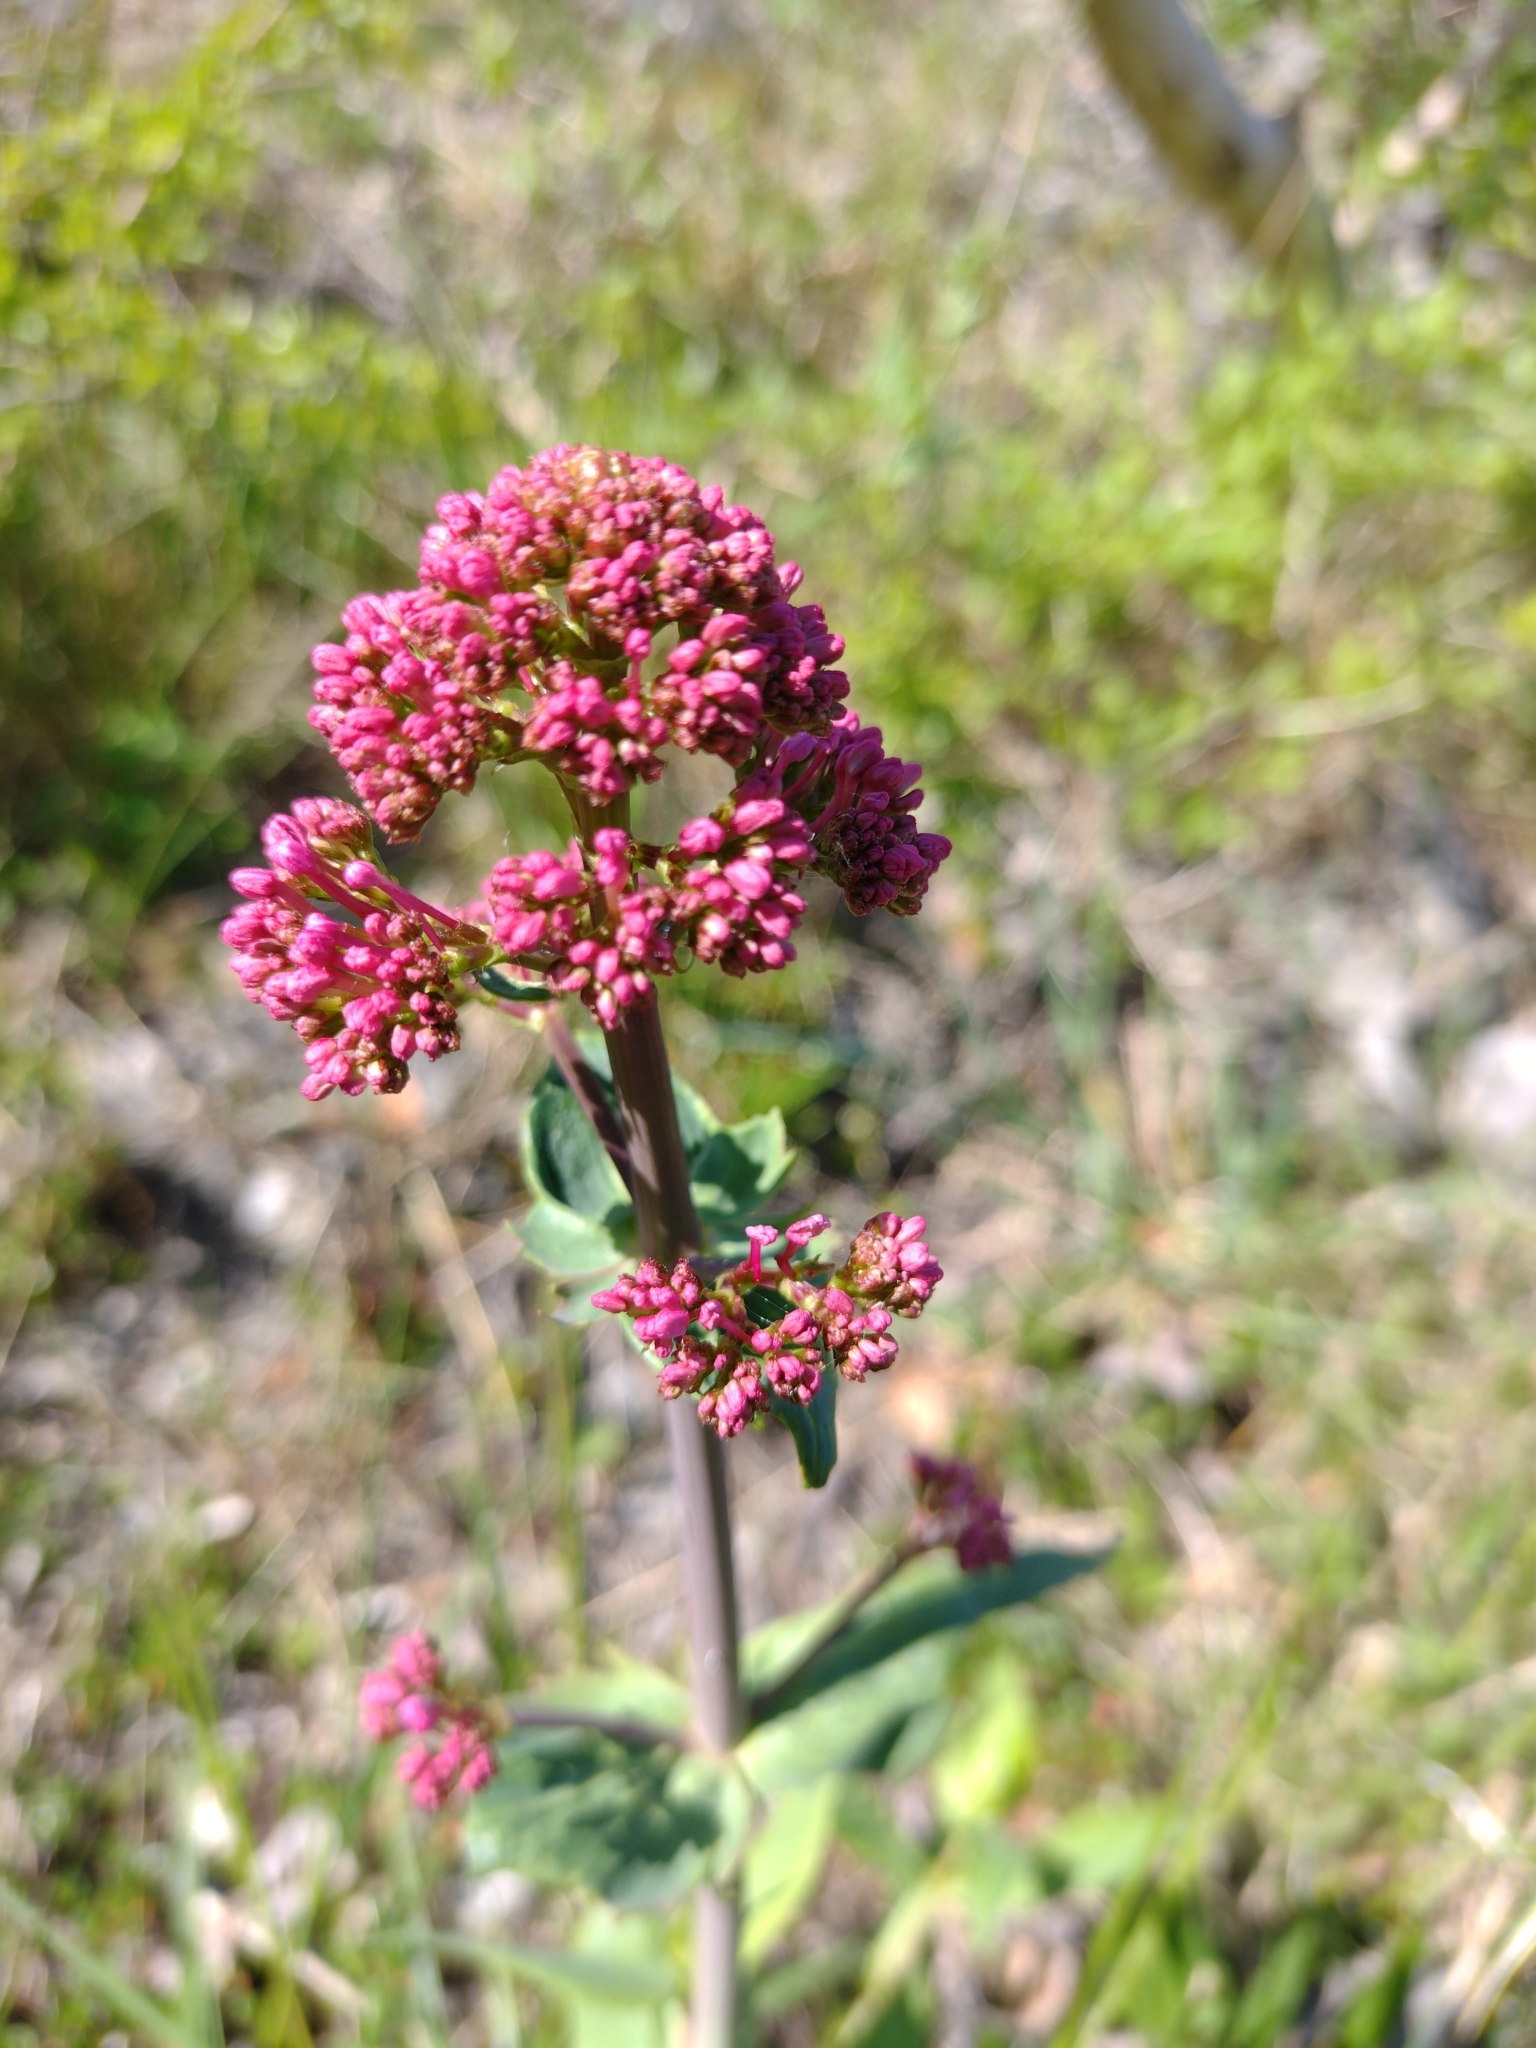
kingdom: Plantae
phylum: Tracheophyta
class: Magnoliopsida
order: Dipsacales
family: Caprifoliaceae
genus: Centranthus
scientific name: Centranthus ruber
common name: Red valerian
